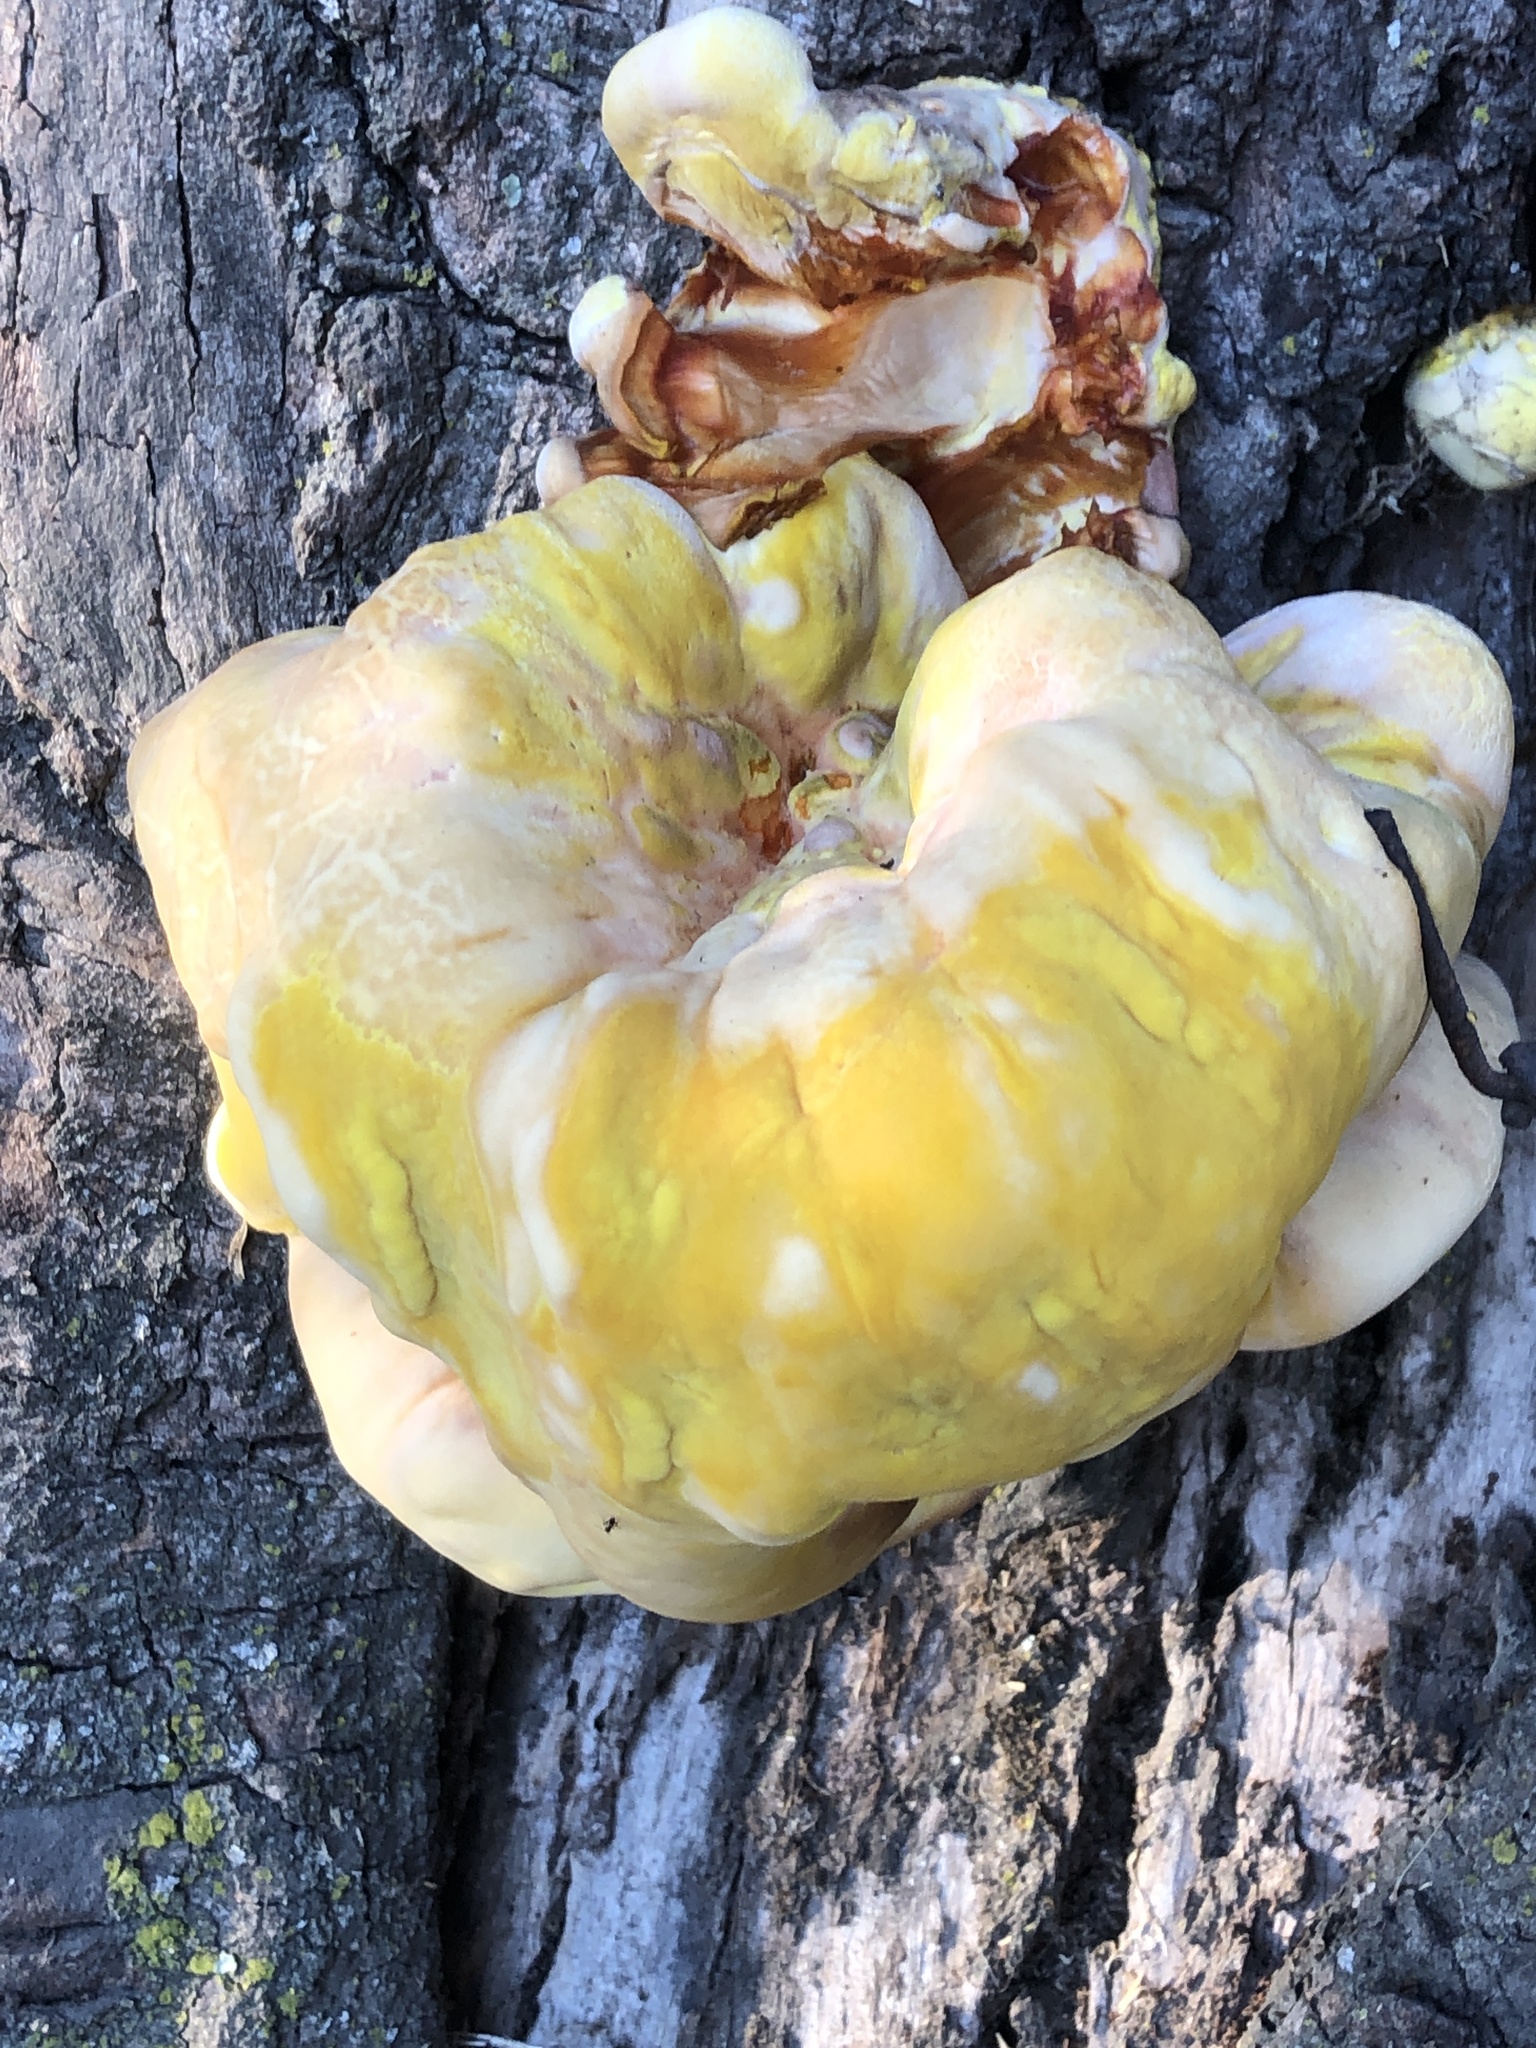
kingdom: Fungi
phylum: Basidiomycota
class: Agaricomycetes
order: Polyporales
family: Laetiporaceae
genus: Laetiporus
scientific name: Laetiporus gilbertsonii
